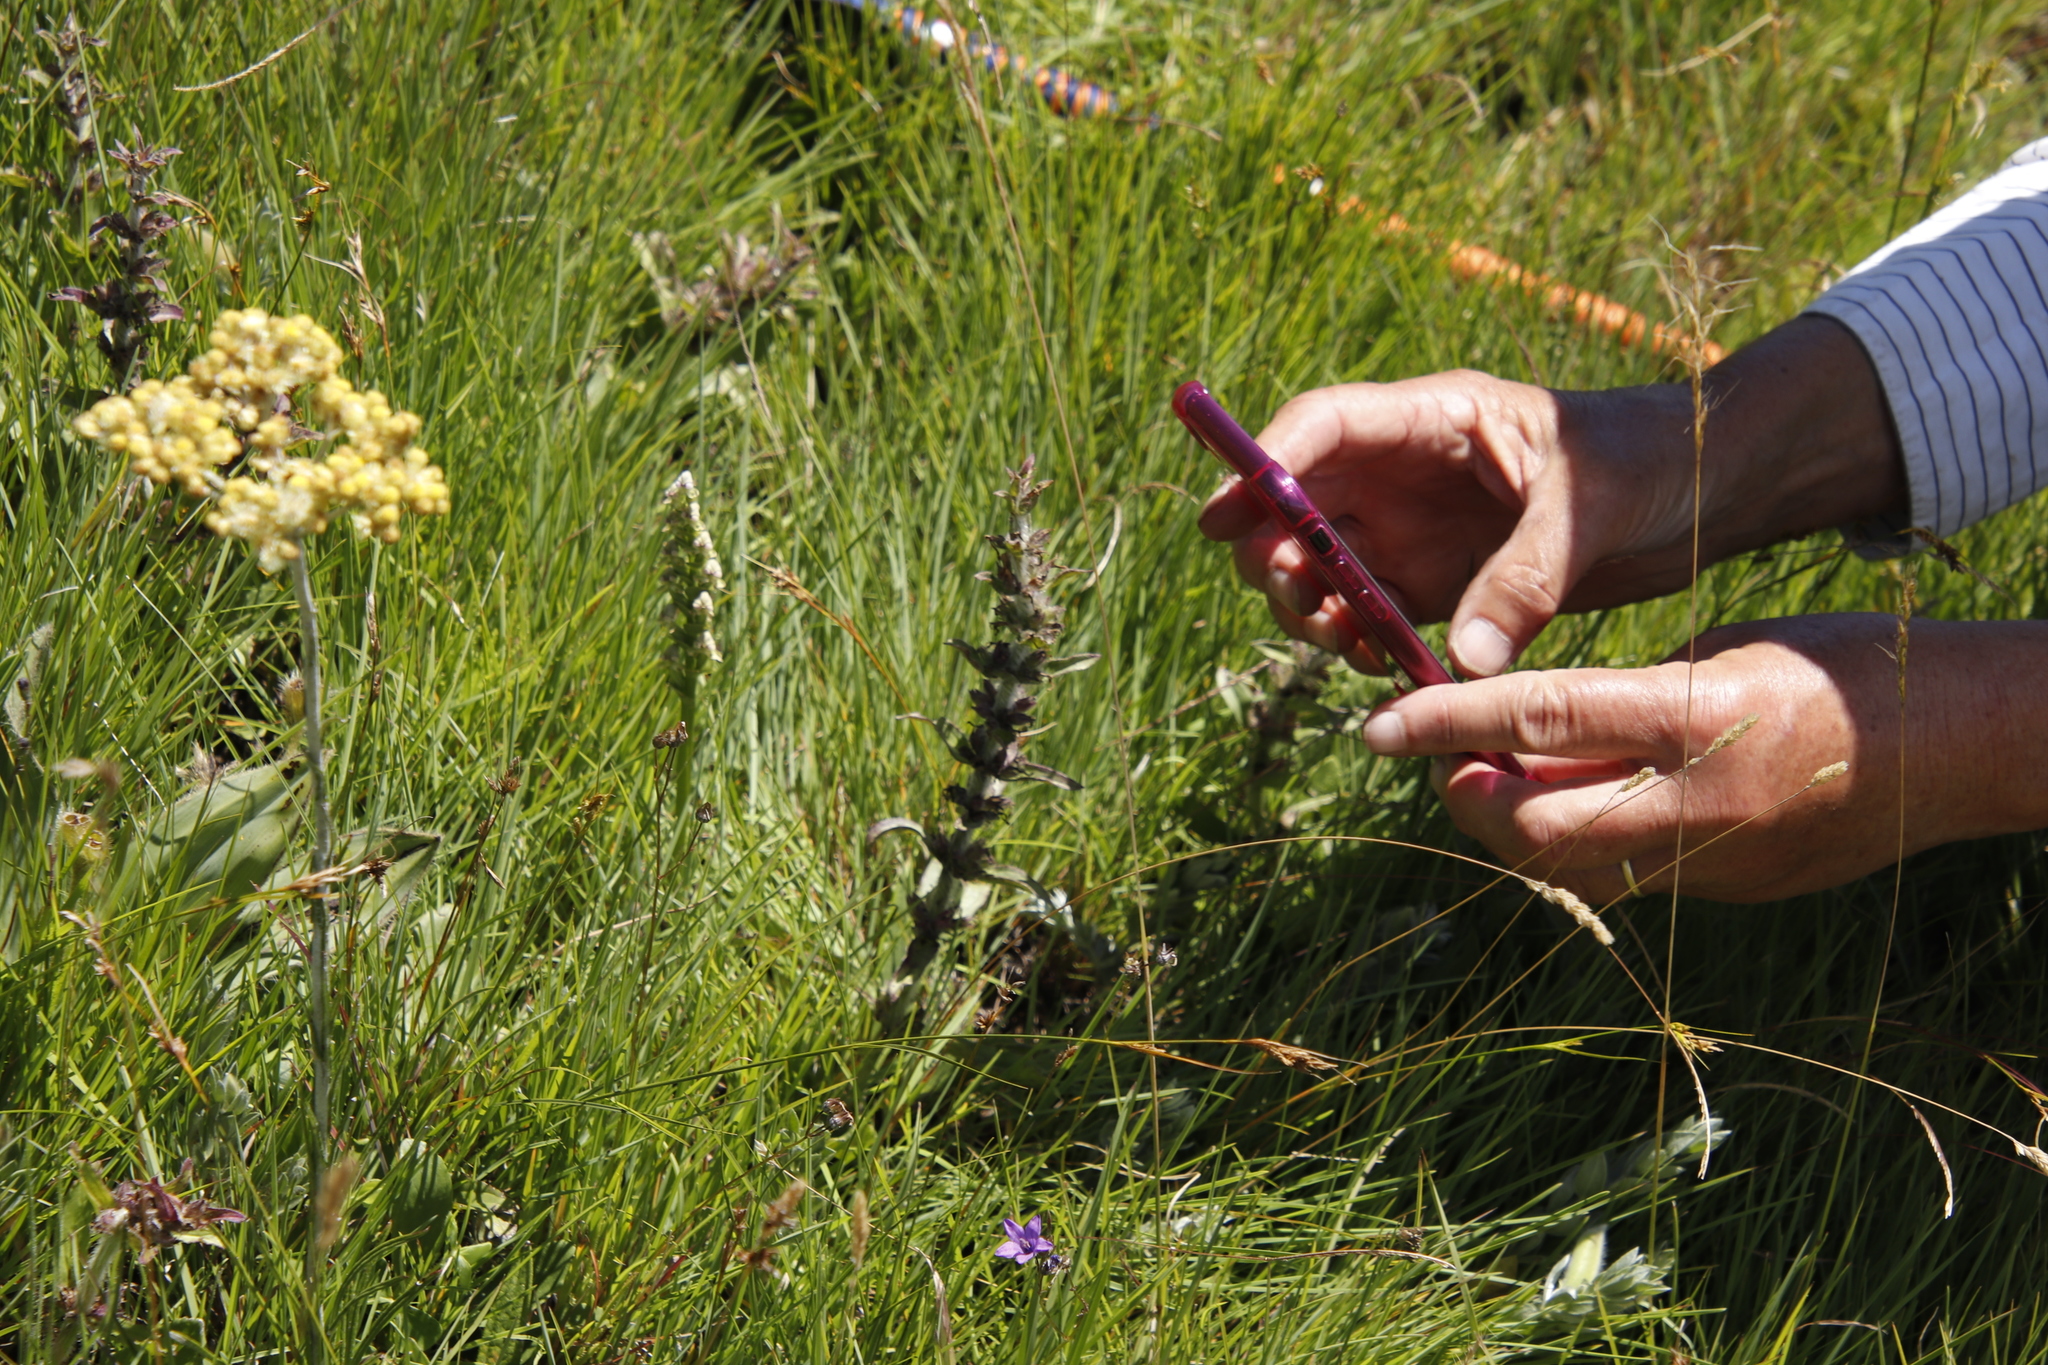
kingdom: Plantae
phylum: Tracheophyta
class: Magnoliopsida
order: Lamiales
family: Lamiaceae
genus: Ajuga
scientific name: Ajuga ophrydis
